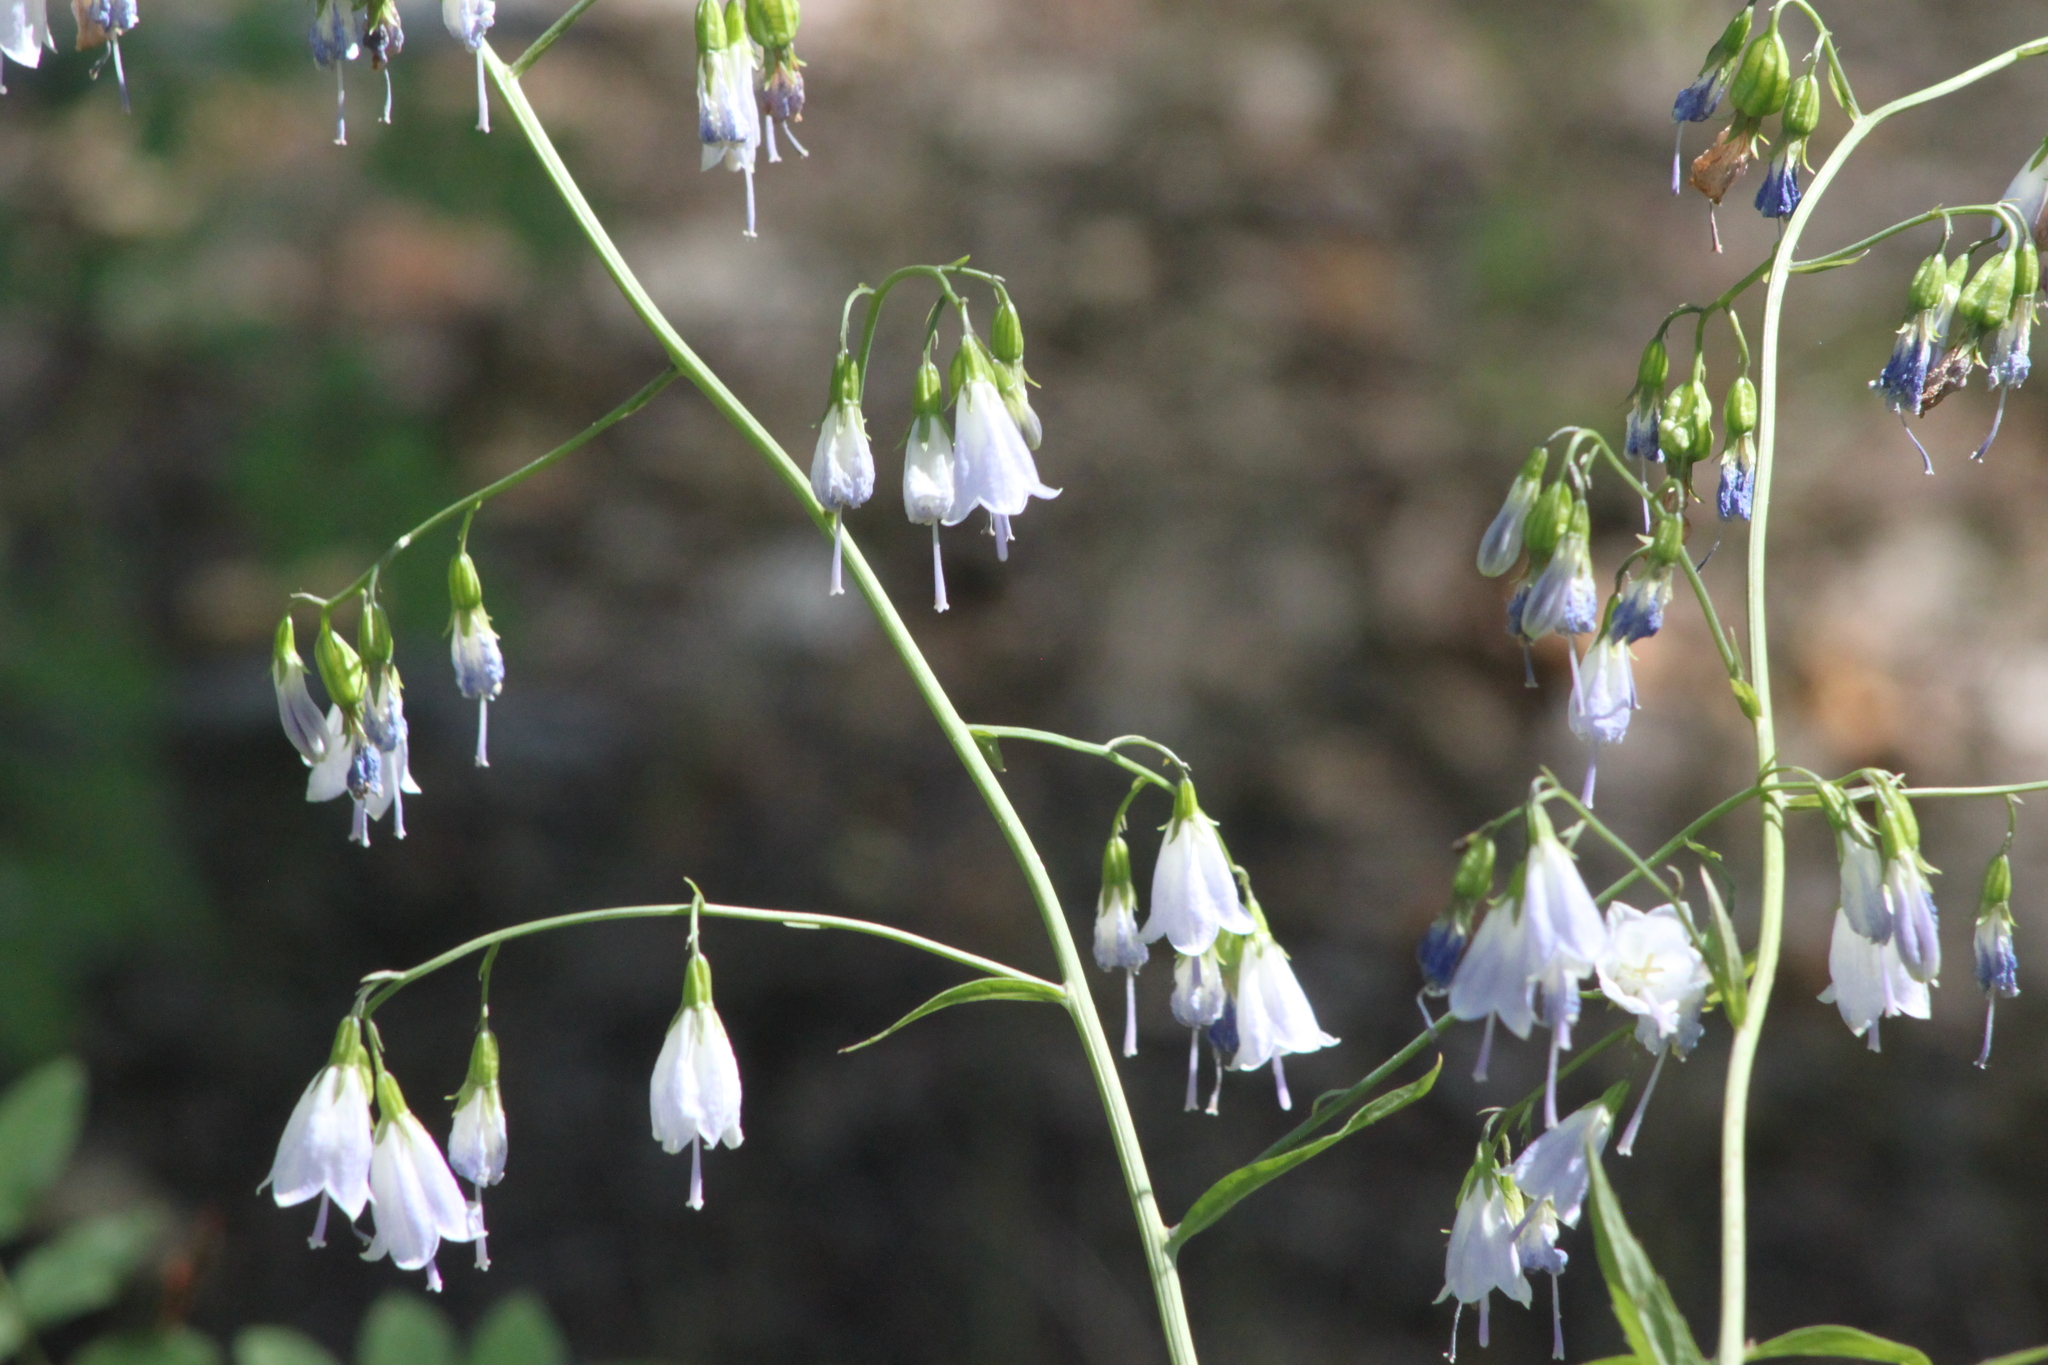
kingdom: Plantae
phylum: Tracheophyta
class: Magnoliopsida
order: Asterales
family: Campanulaceae
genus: Adenophora
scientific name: Adenophora liliifolia
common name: Lilyleaf ladybells
